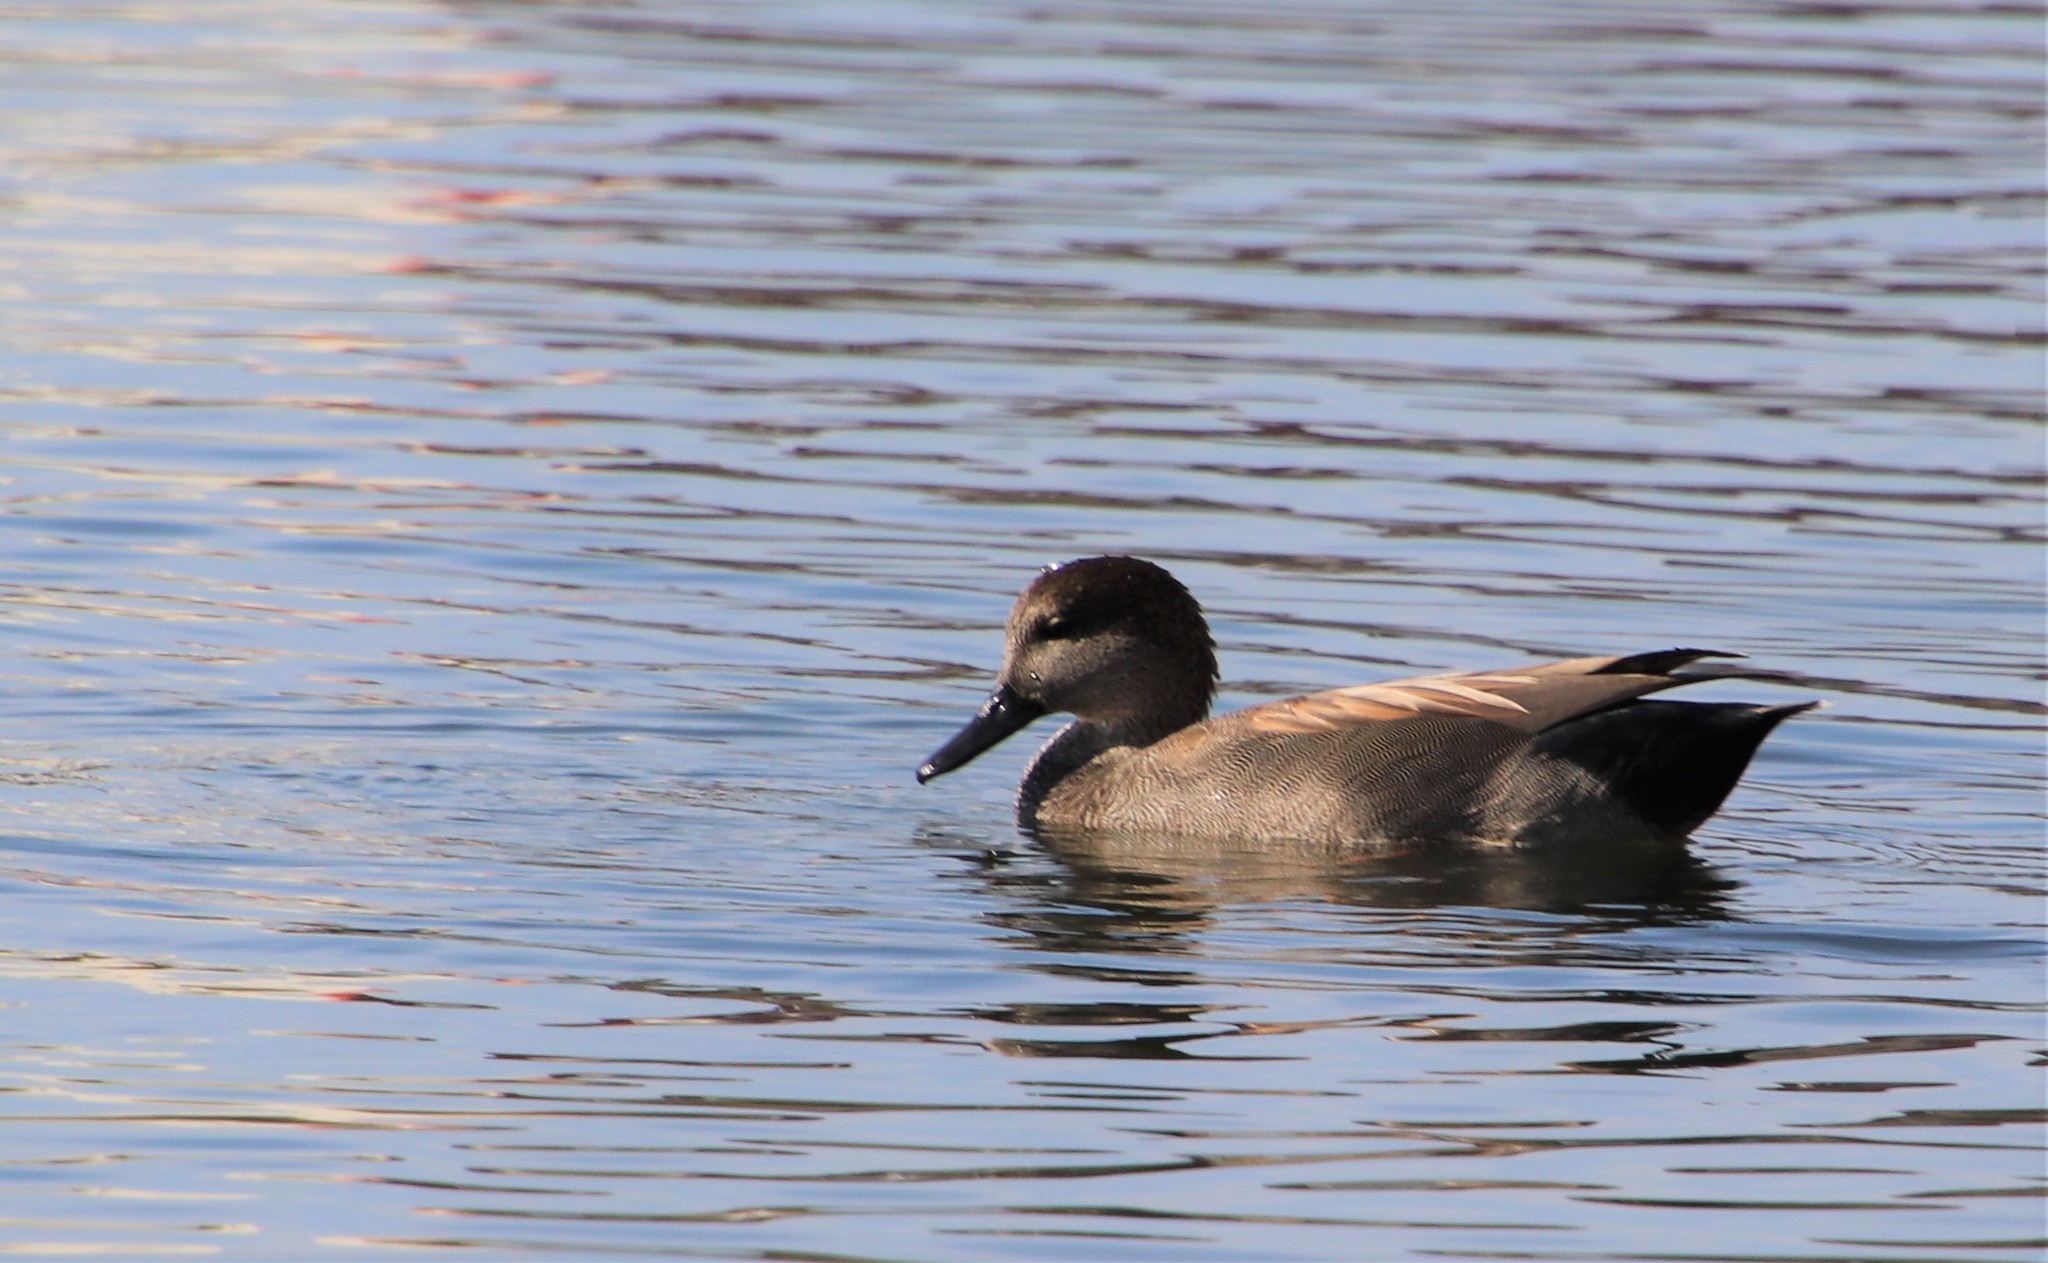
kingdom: Animalia
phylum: Chordata
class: Aves
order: Anseriformes
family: Anatidae
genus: Mareca
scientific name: Mareca strepera
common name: Gadwall
